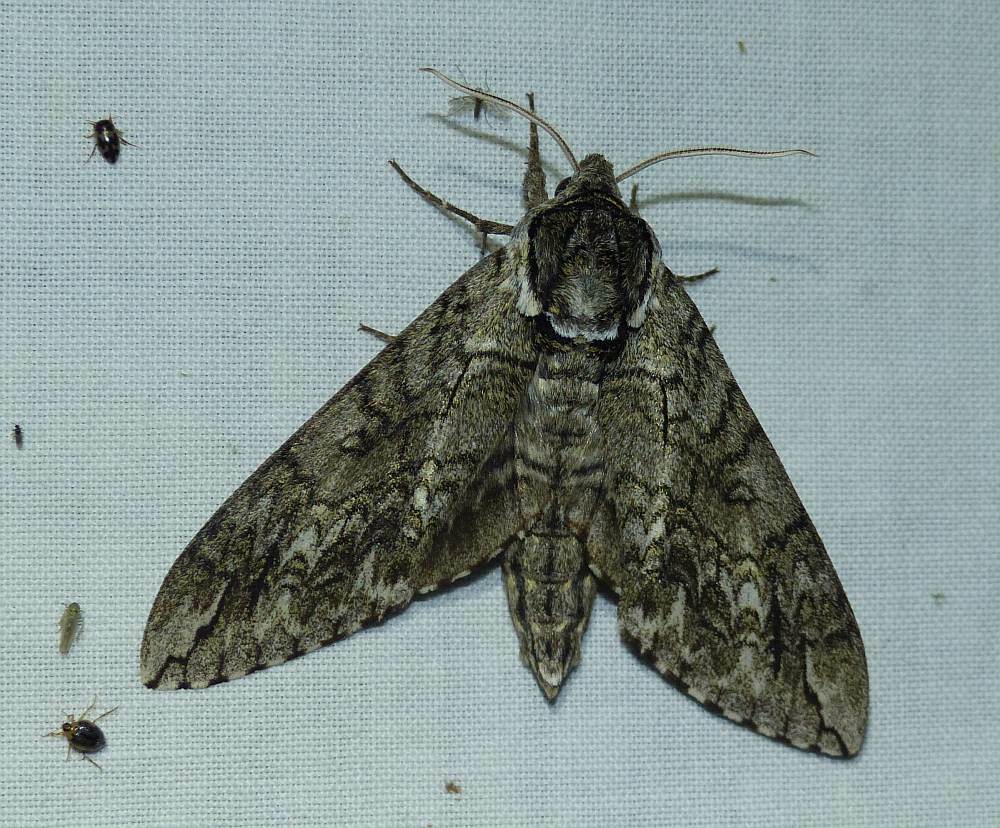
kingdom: Animalia
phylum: Arthropoda
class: Insecta
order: Lepidoptera
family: Sphingidae
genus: Ceratomia
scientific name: Ceratomia undulosa
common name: Waved sphinx
